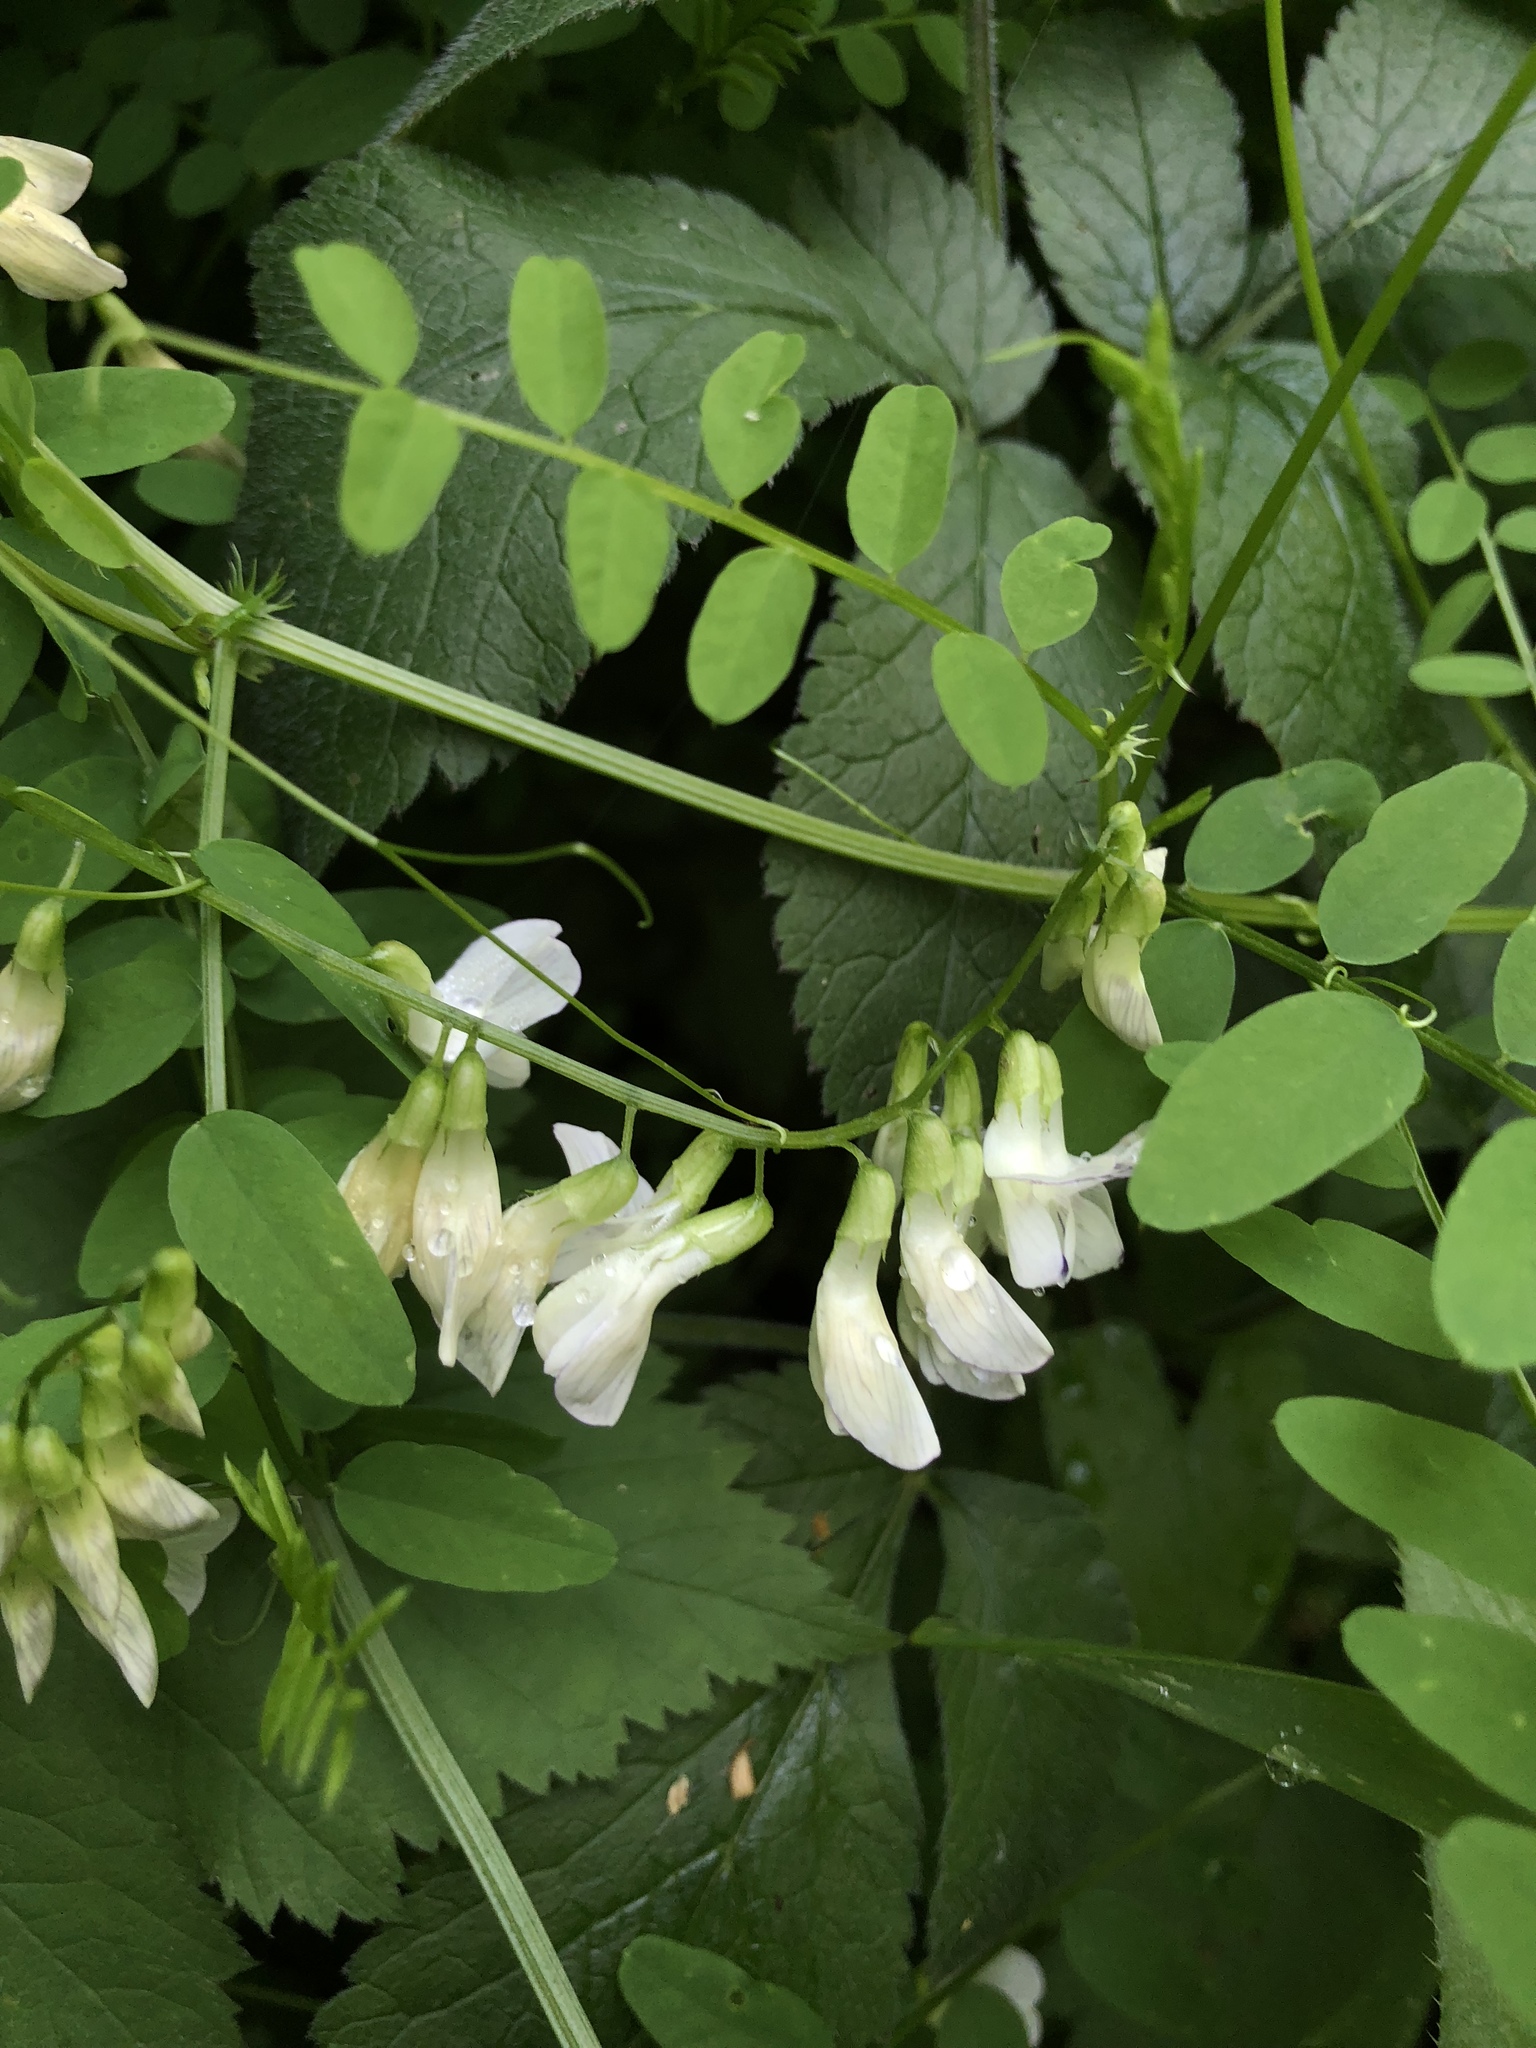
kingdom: Plantae
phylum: Tracheophyta
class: Magnoliopsida
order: Fabales
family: Fabaceae
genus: Vicia
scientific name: Vicia sylvatica
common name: Wood vetch
